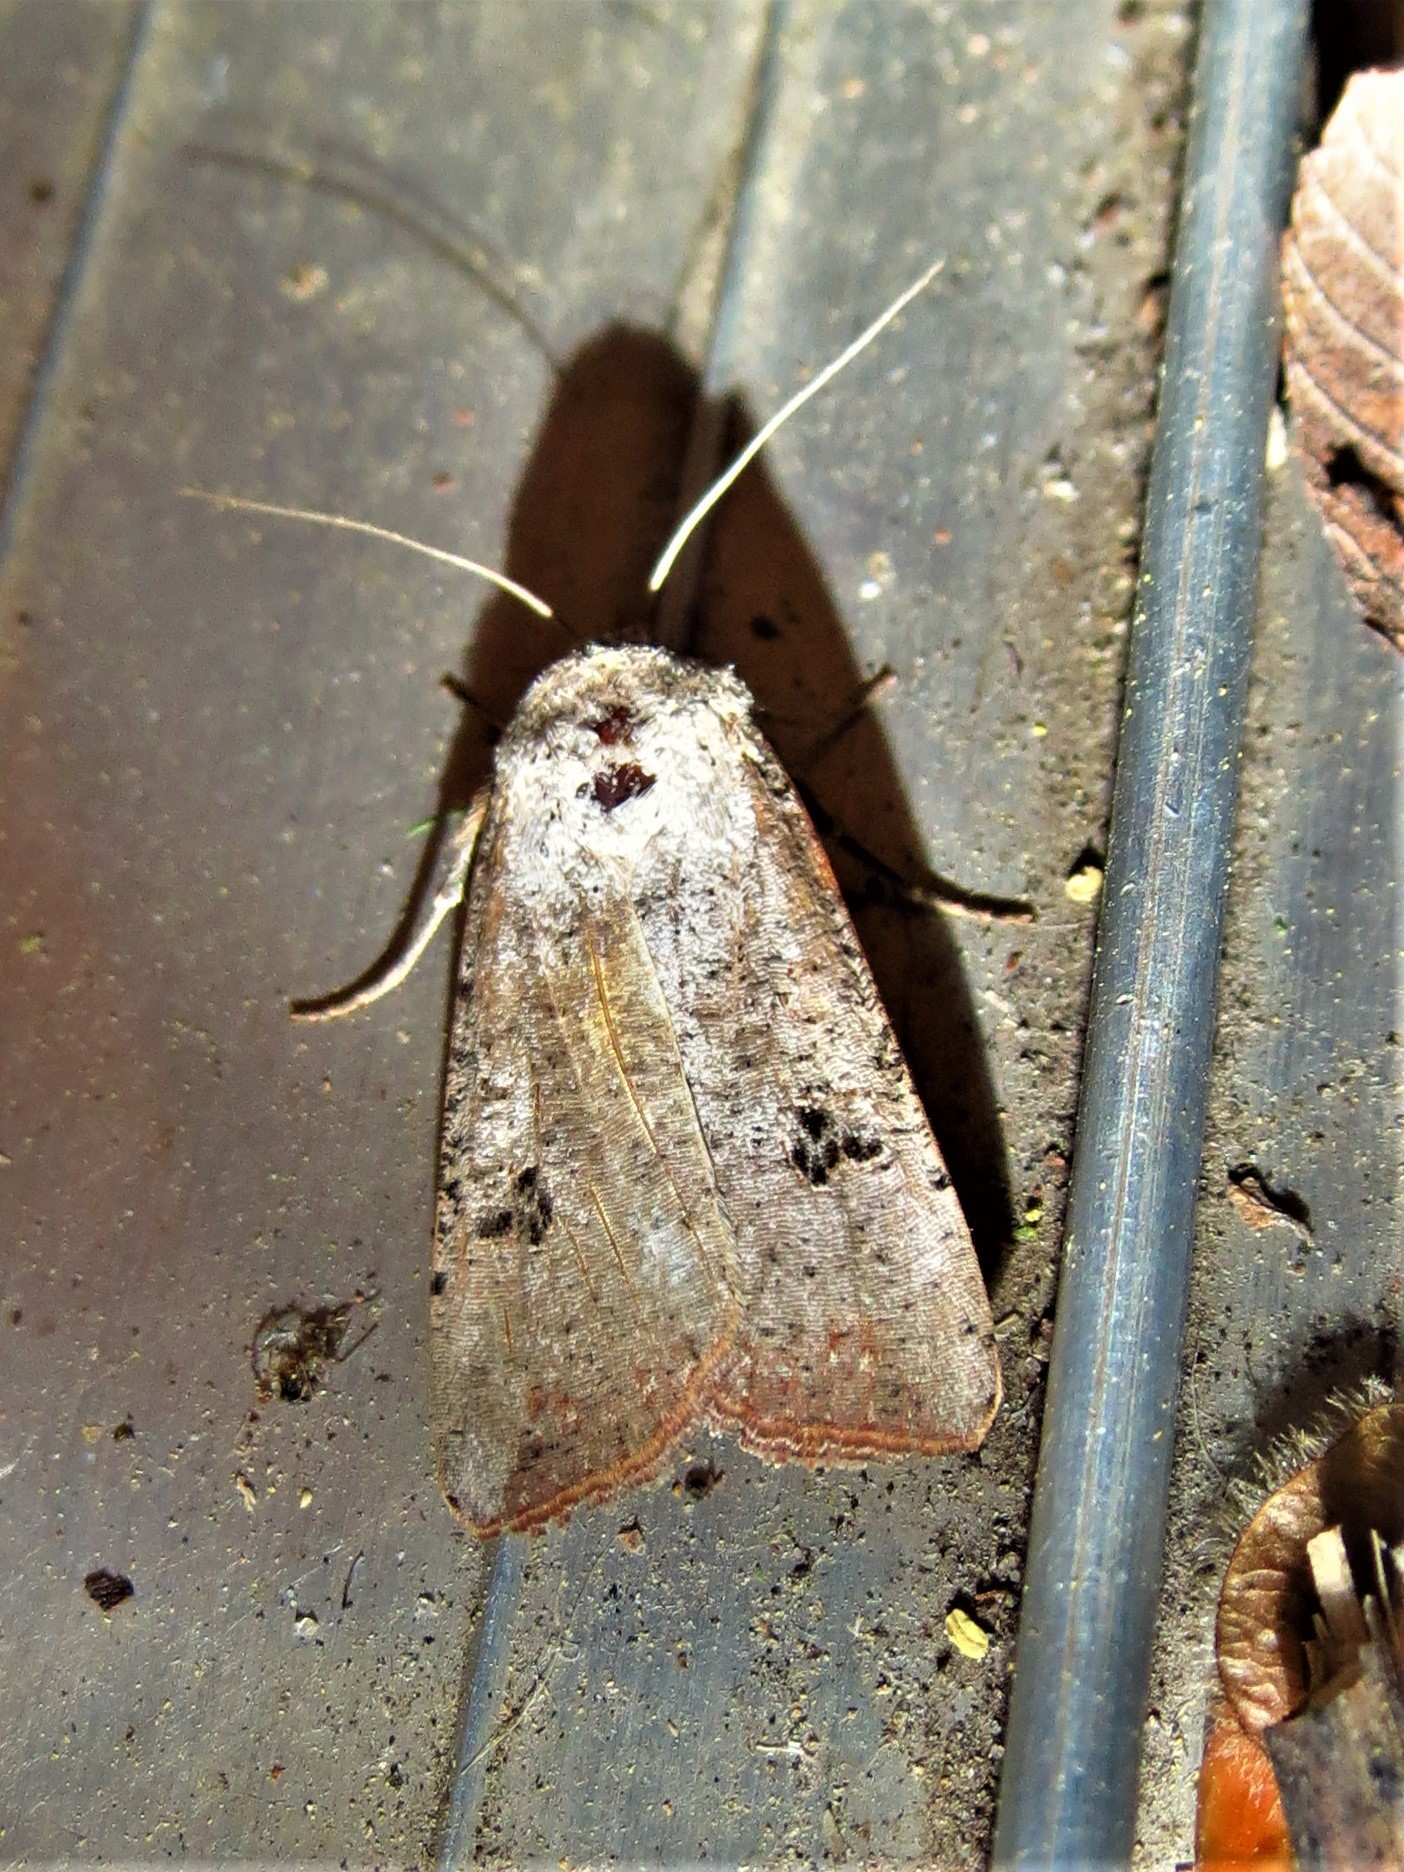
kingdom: Animalia
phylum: Arthropoda
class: Insecta
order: Lepidoptera
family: Noctuidae
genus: Anicla
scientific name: Anicla infecta
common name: Green cutworm
